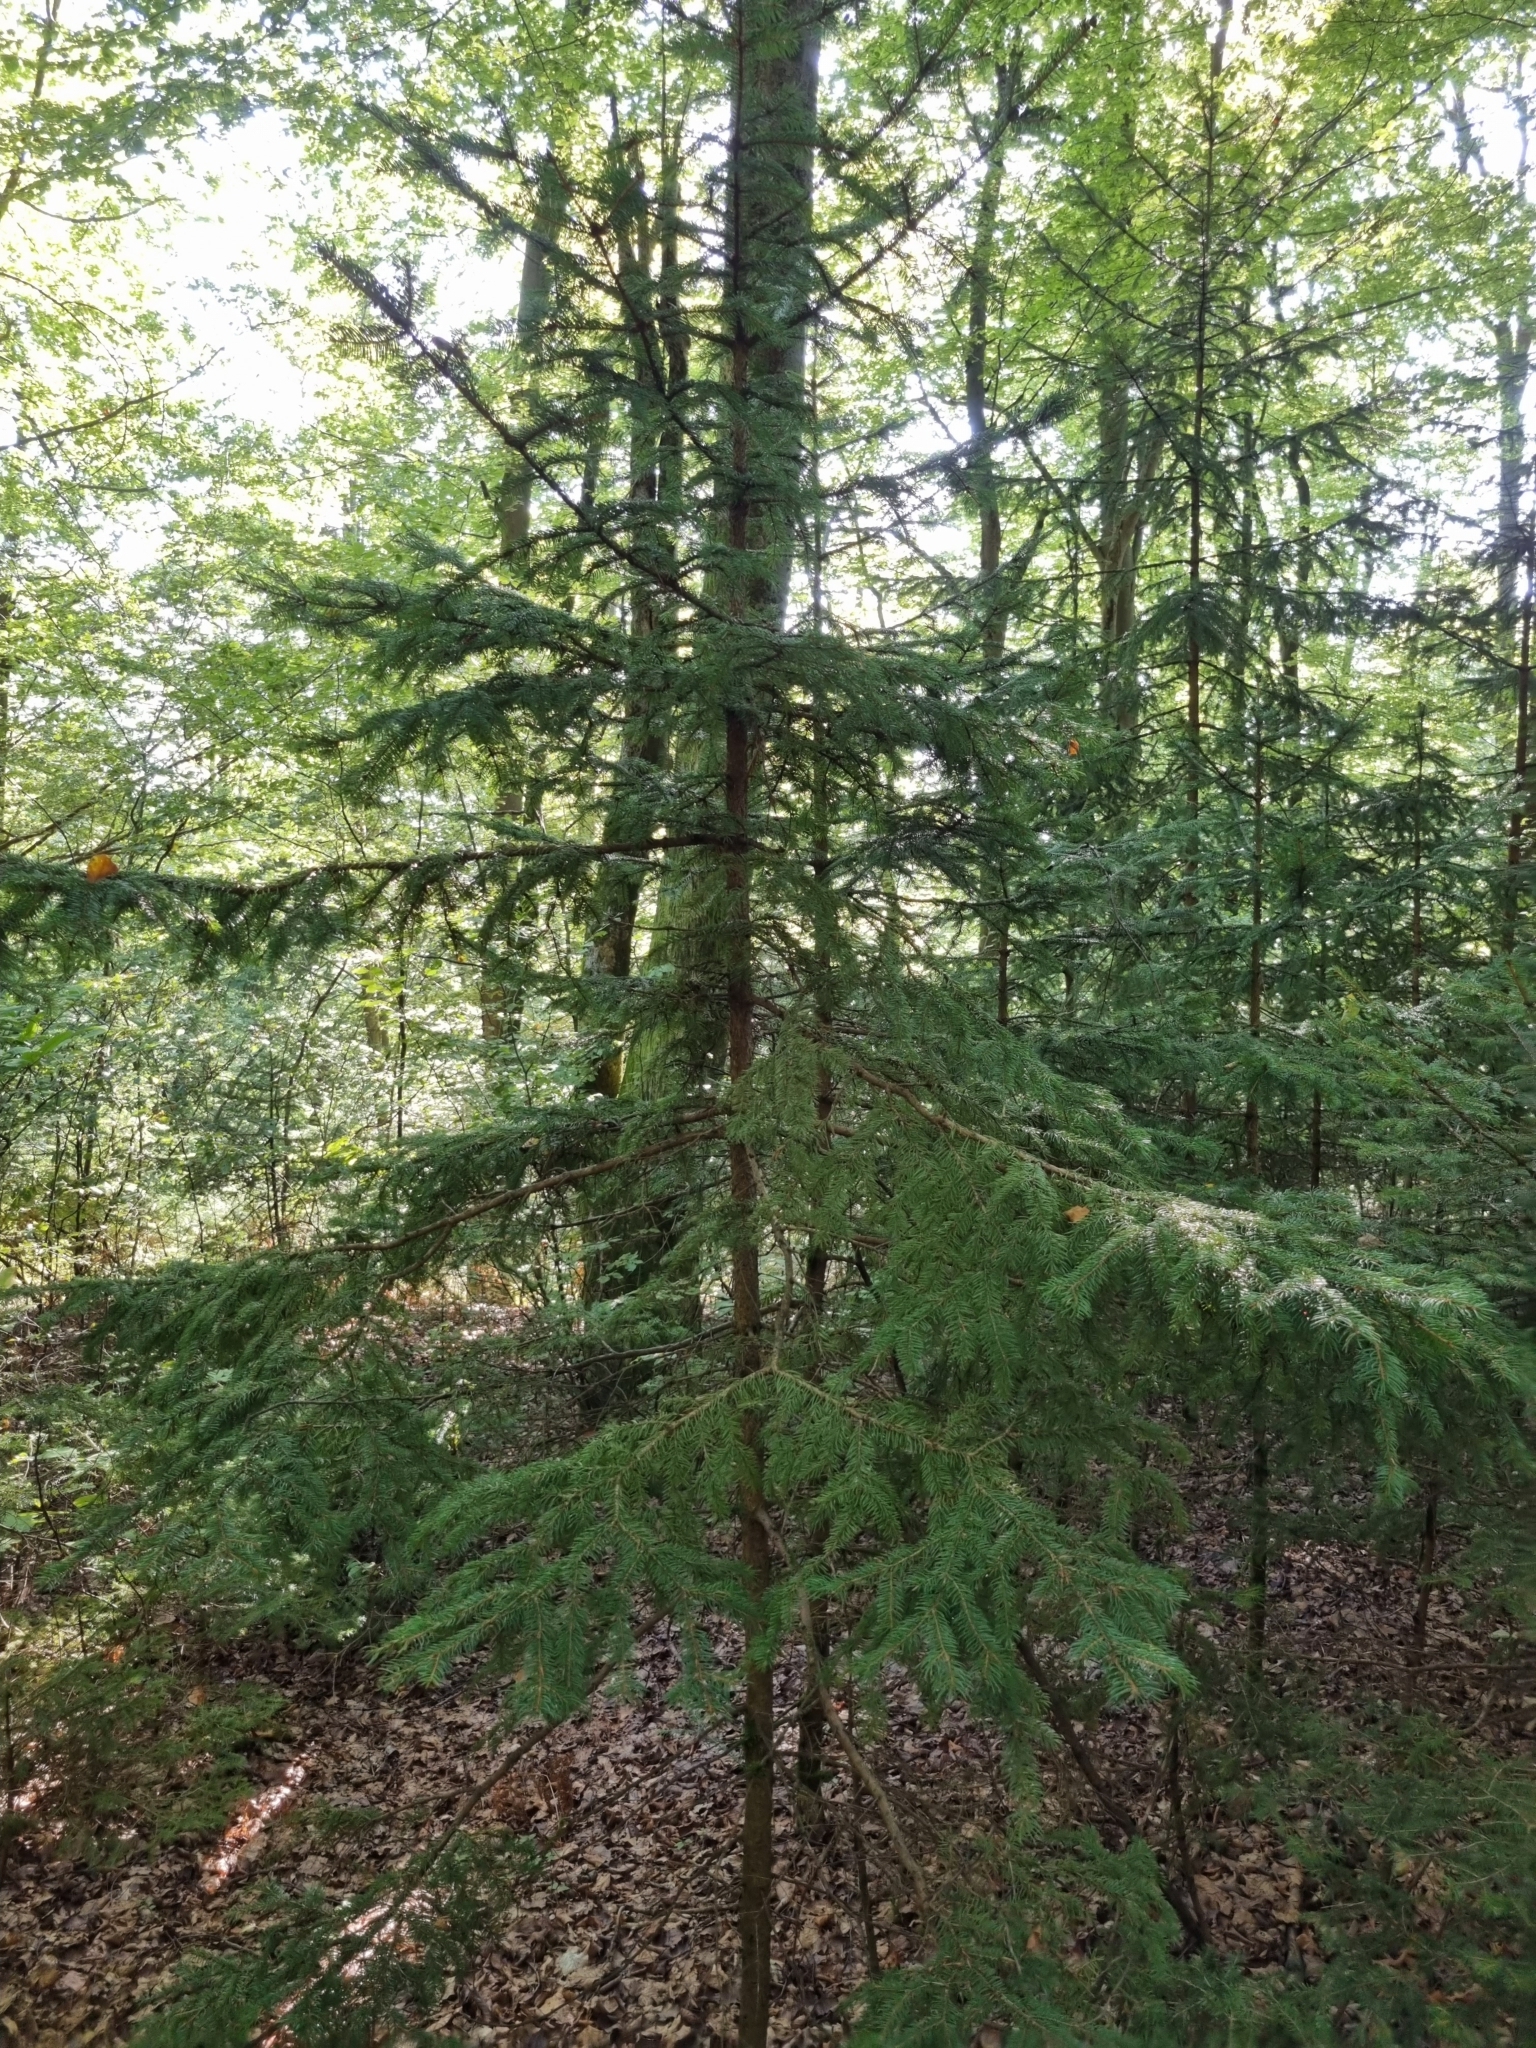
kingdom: Plantae
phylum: Tracheophyta
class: Pinopsida
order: Pinales
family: Pinaceae
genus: Picea
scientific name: Picea abies
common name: Norway spruce
